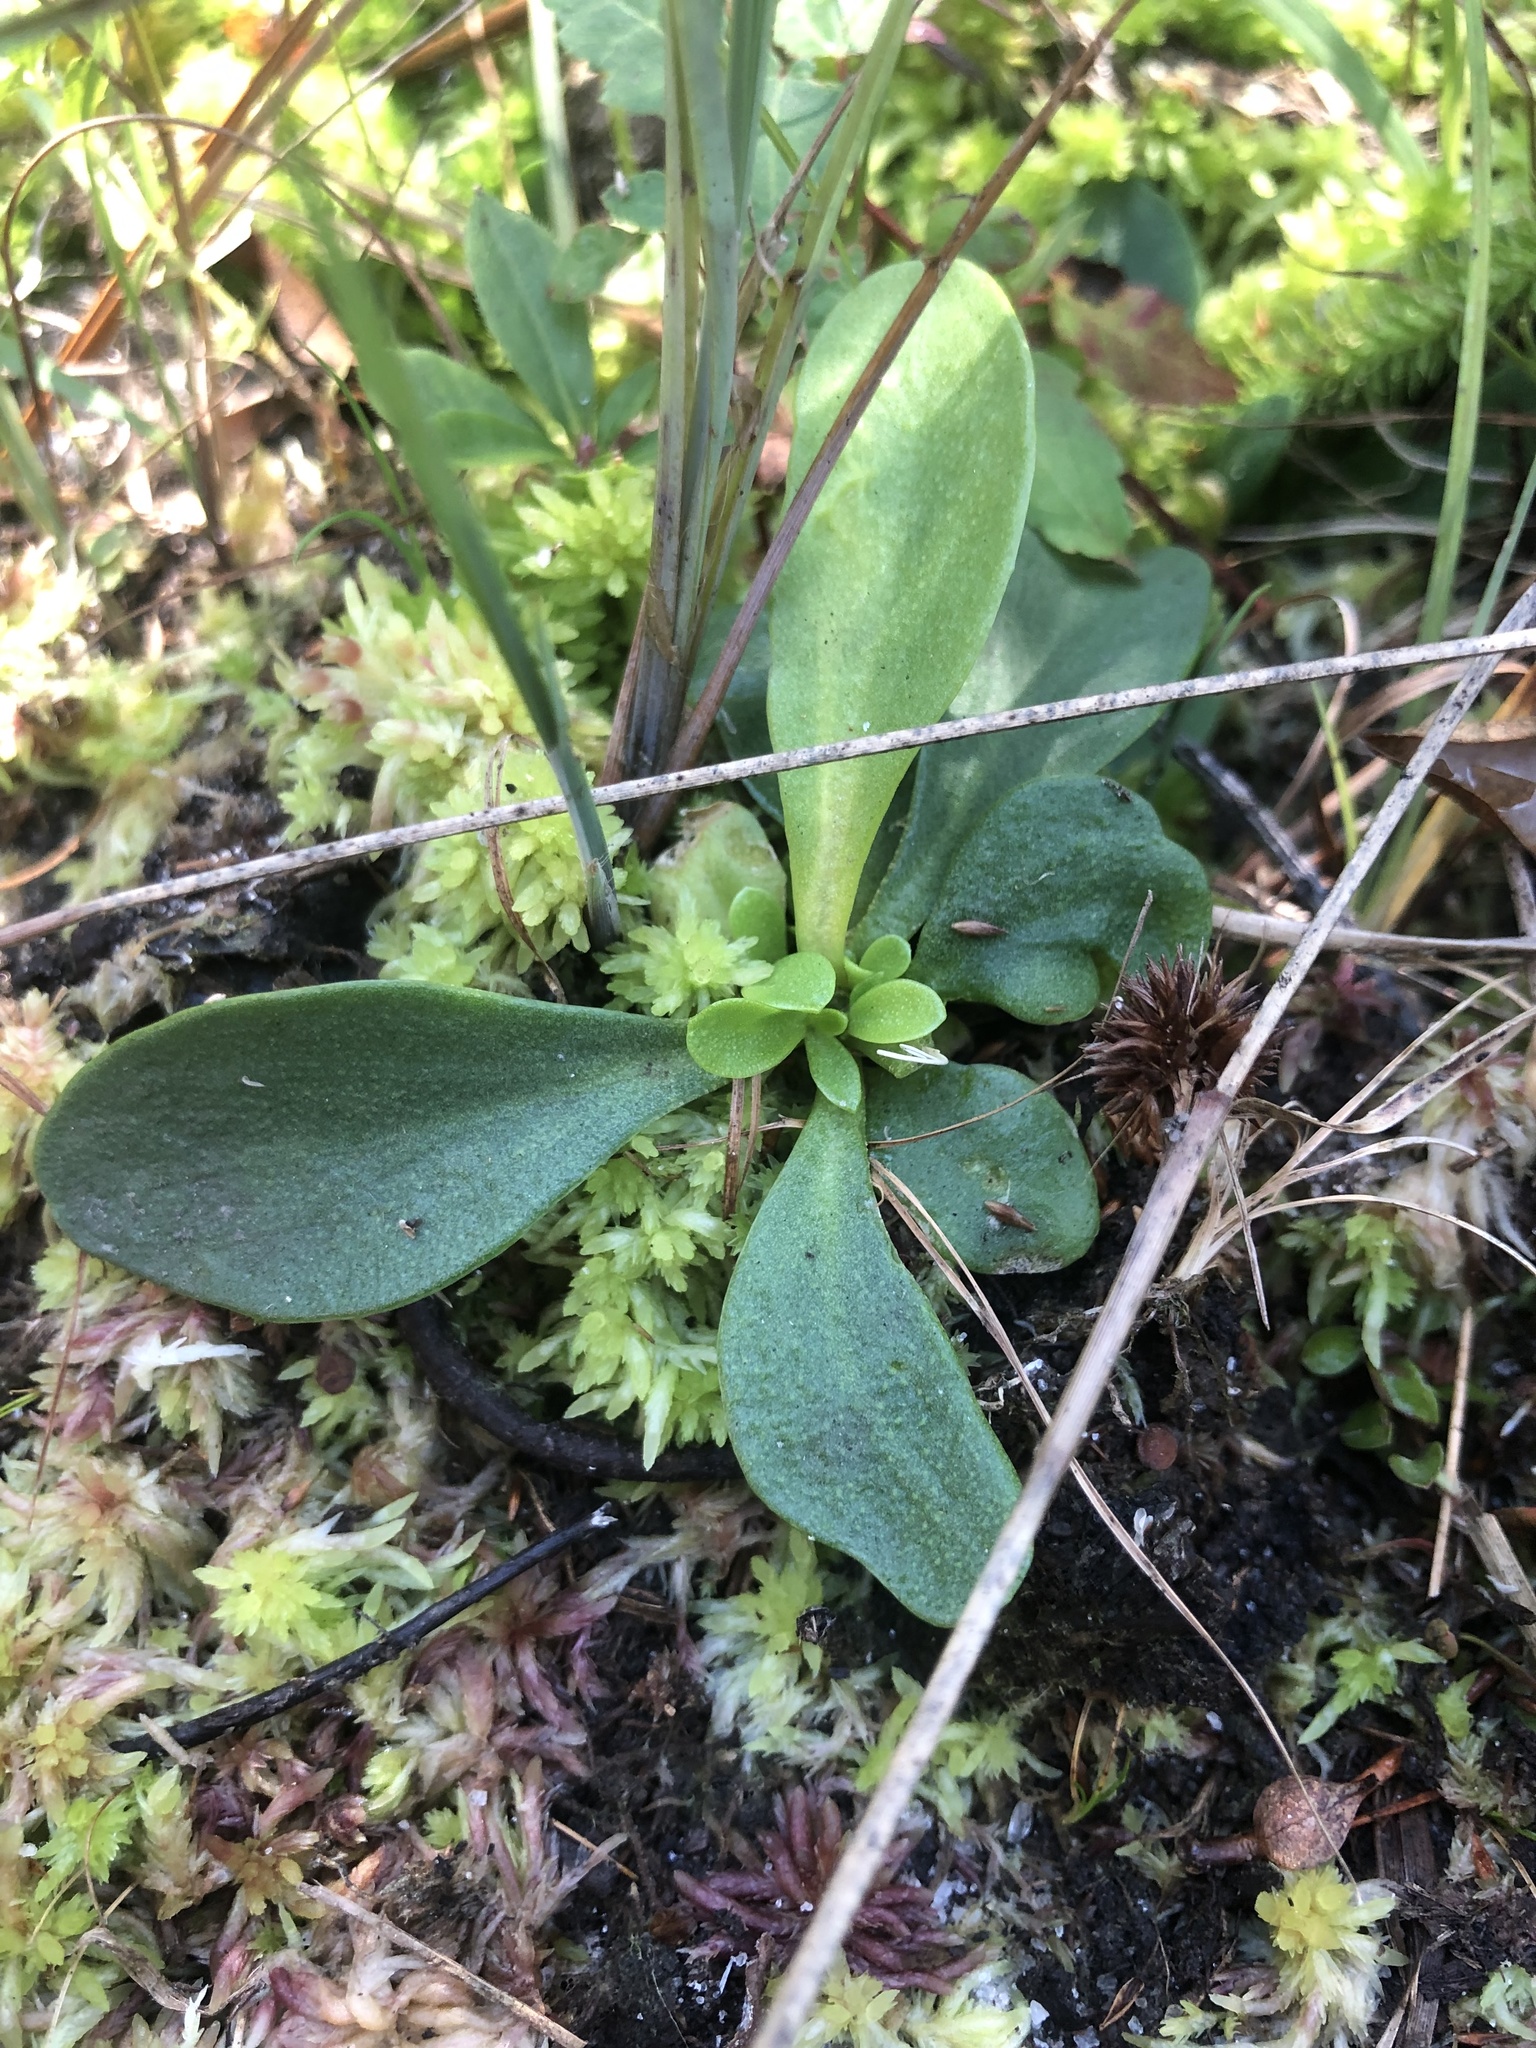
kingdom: Plantae
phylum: Tracheophyta
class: Magnoliopsida
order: Fabales
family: Polygalaceae
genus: Polygala
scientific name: Polygala lutea
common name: Orange milkwort
